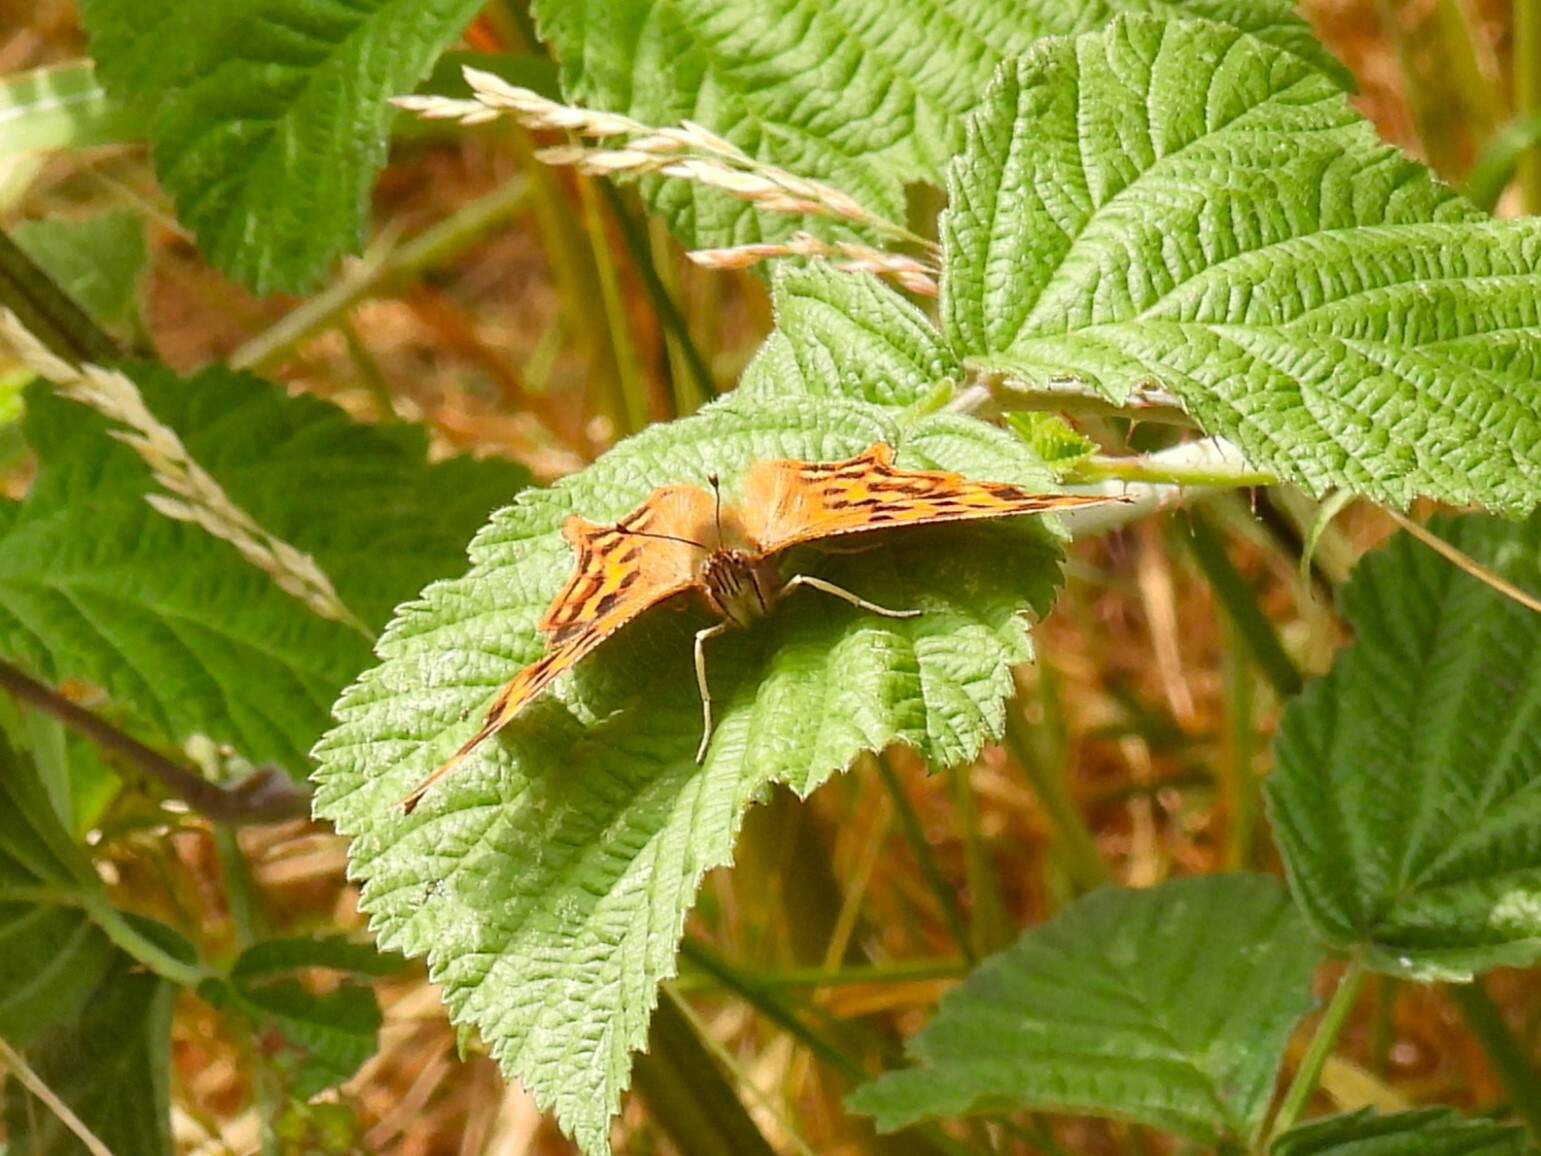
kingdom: Animalia
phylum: Arthropoda
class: Insecta
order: Lepidoptera
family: Nymphalidae
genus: Polygonia
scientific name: Polygonia c-album
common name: Comma
